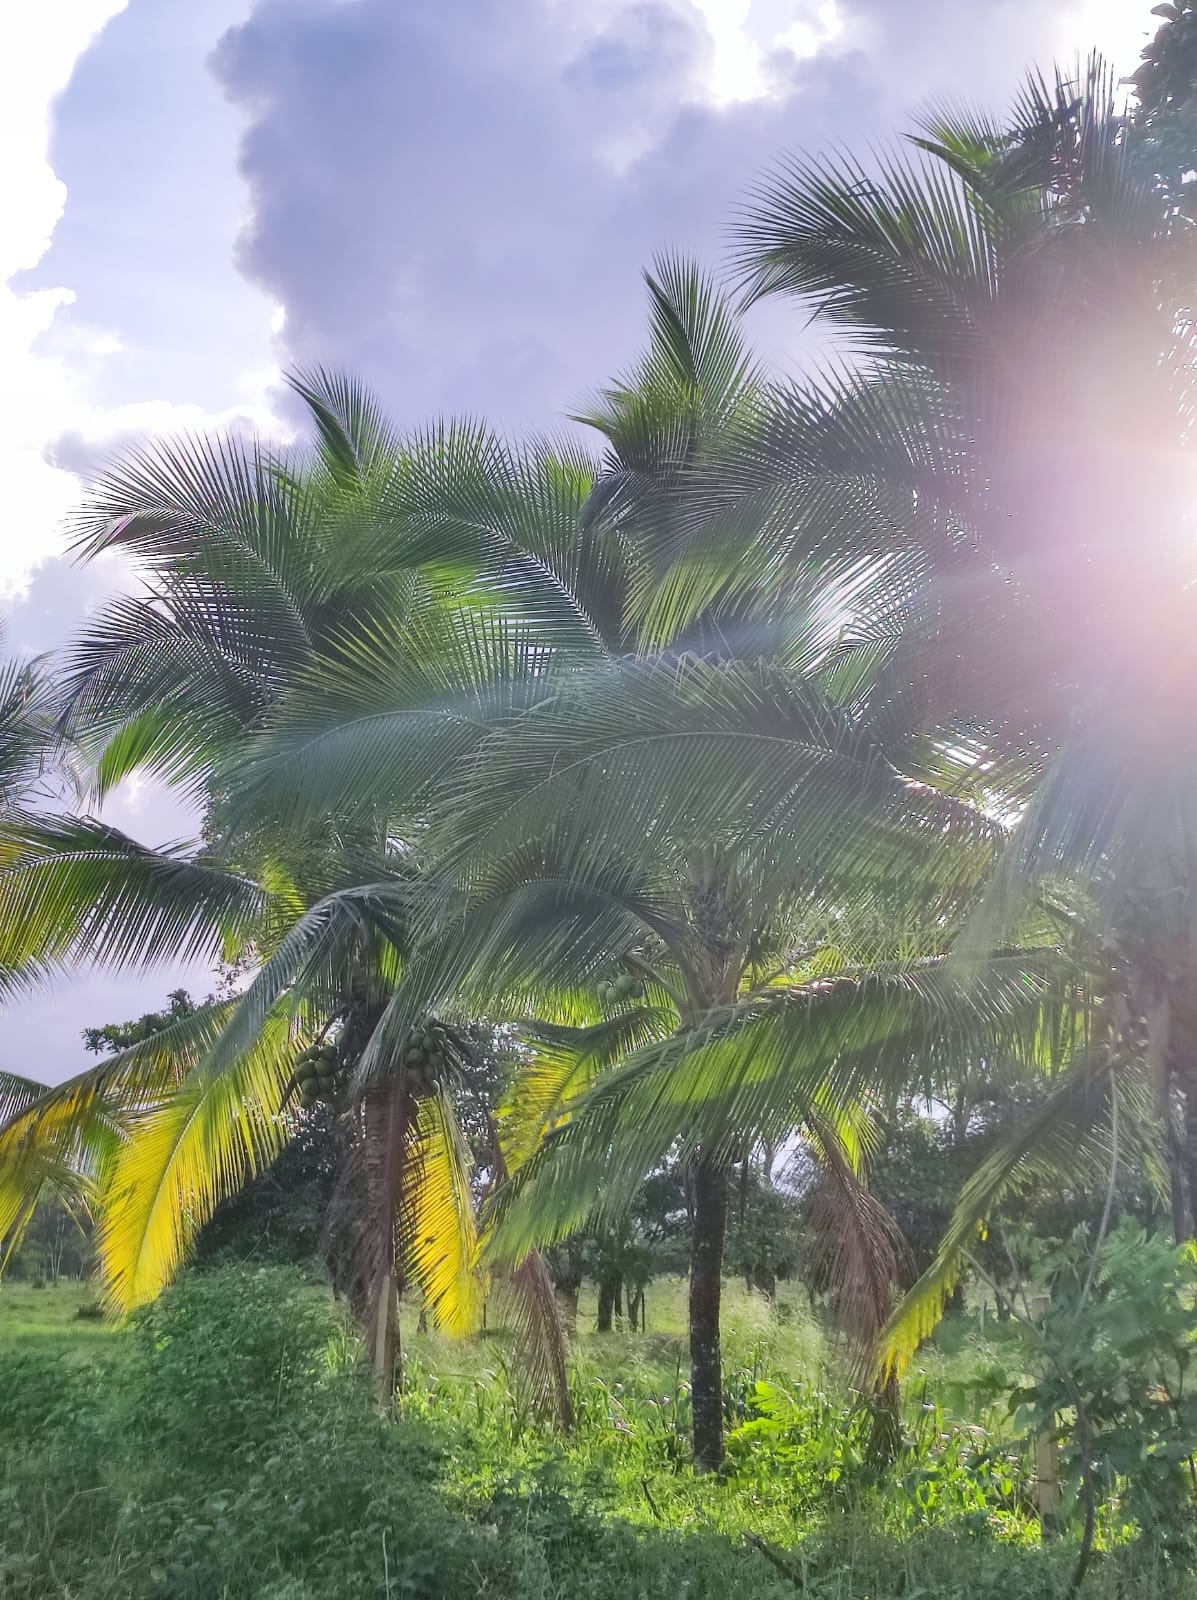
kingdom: Plantae
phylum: Tracheophyta
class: Liliopsida
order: Arecales
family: Arecaceae
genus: Cocos
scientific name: Cocos nucifera
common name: Coconut palm
